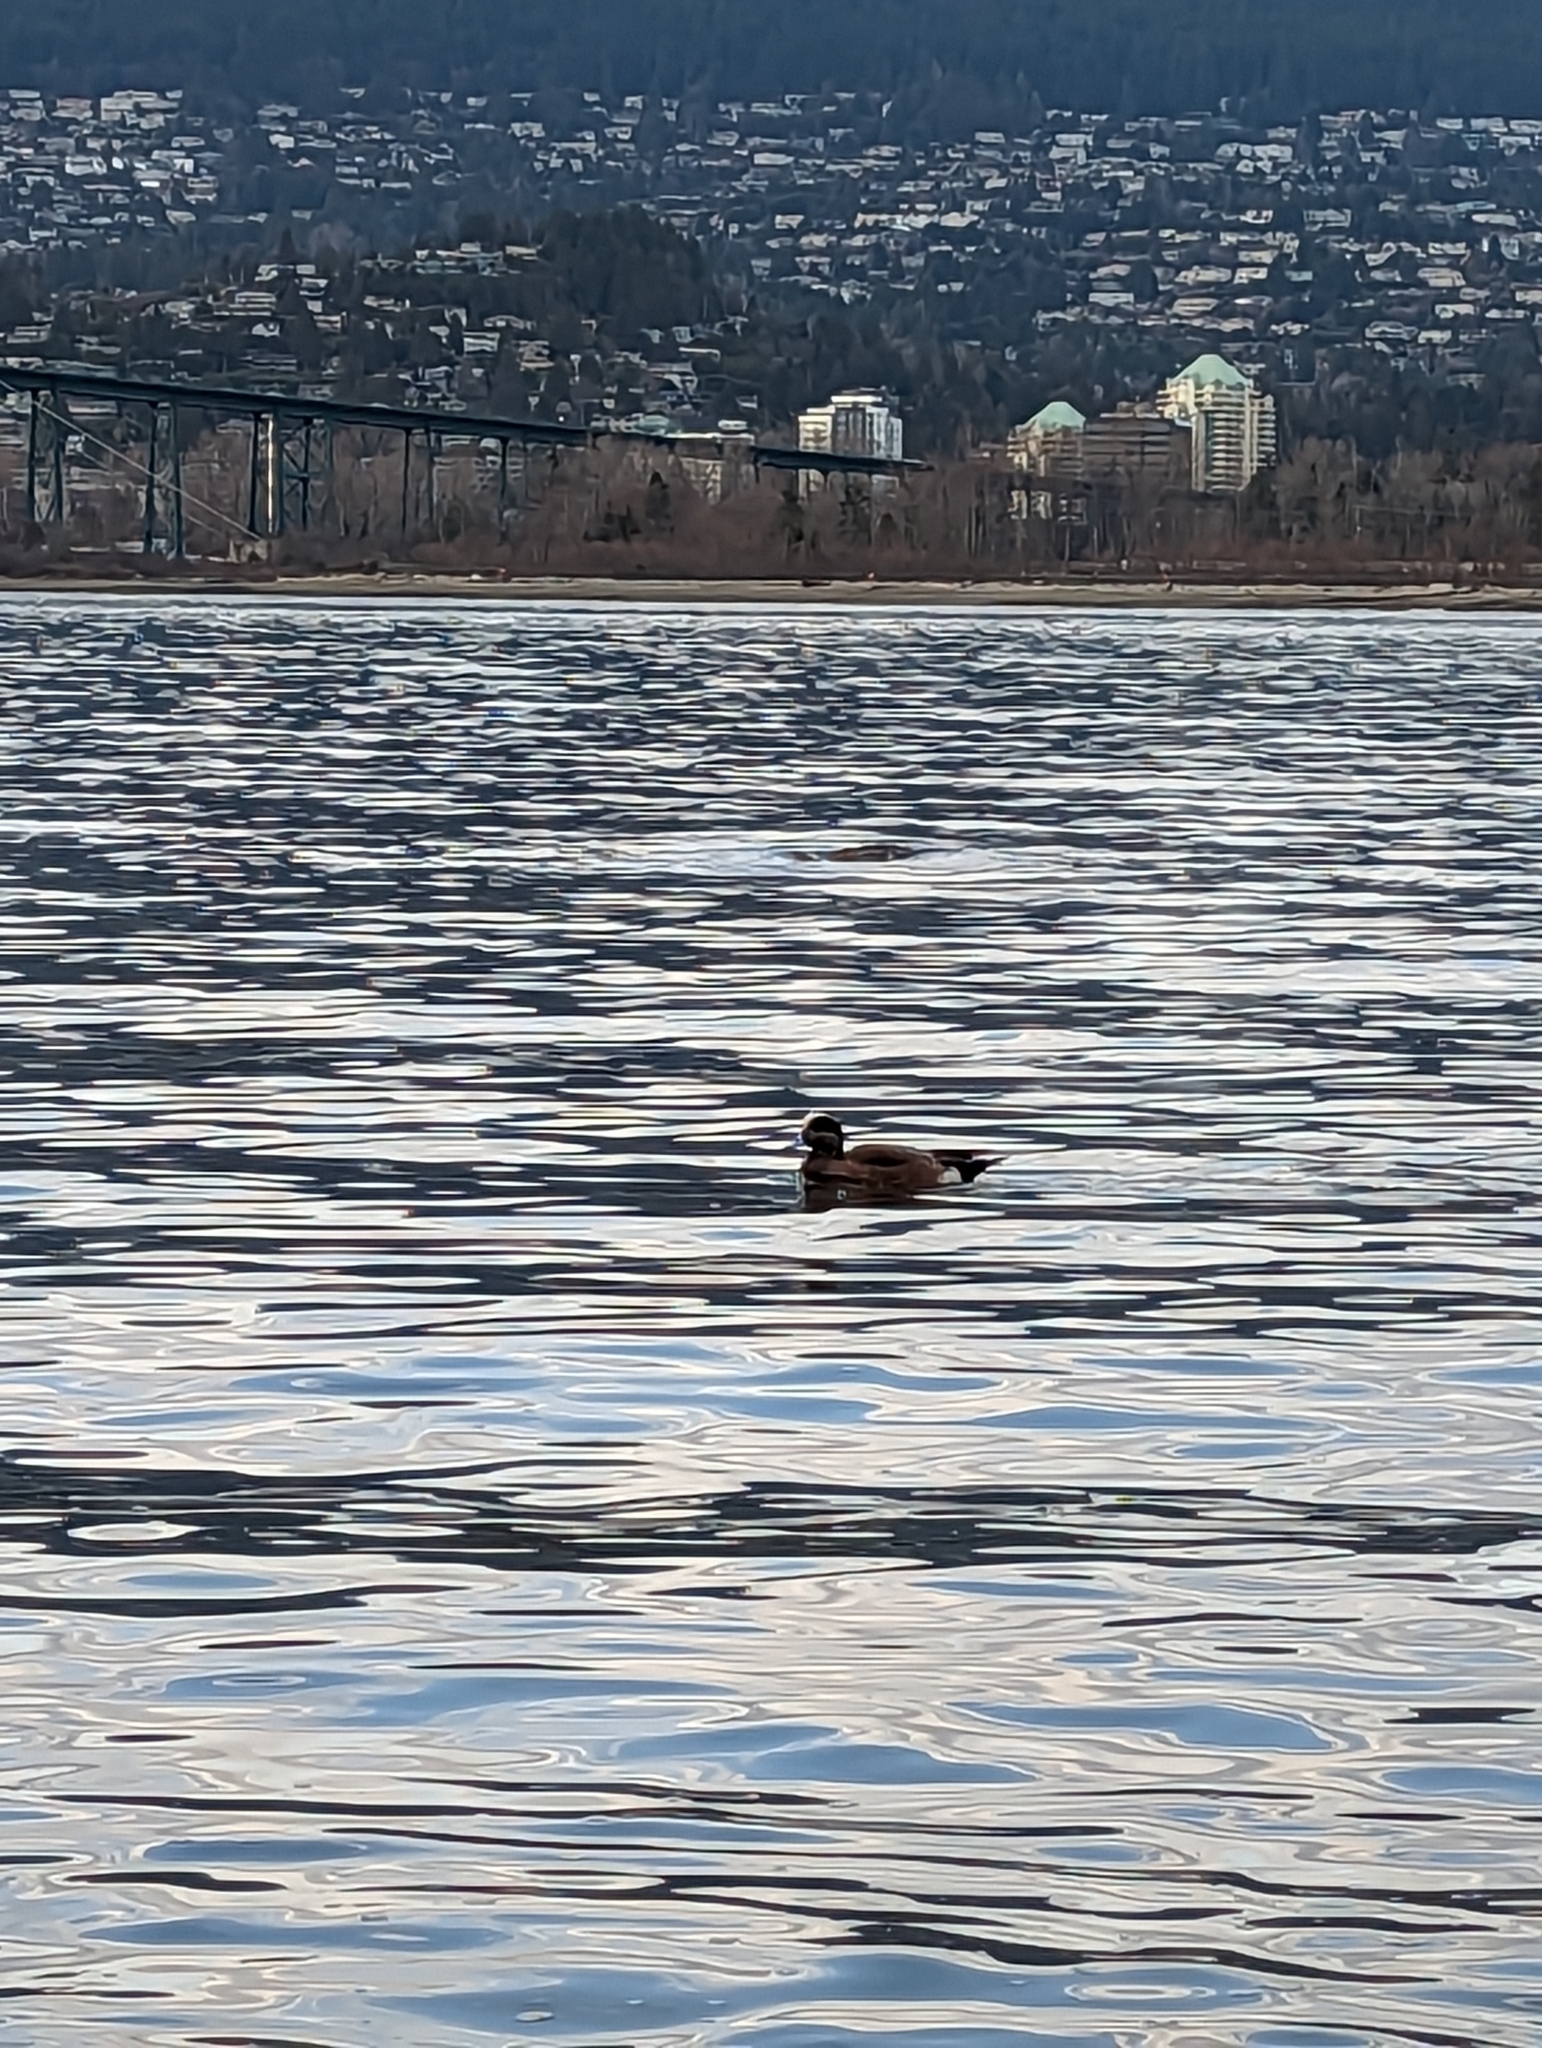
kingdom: Animalia
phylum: Chordata
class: Aves
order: Anseriformes
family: Anatidae
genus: Mareca
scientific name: Mareca americana
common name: American wigeon
